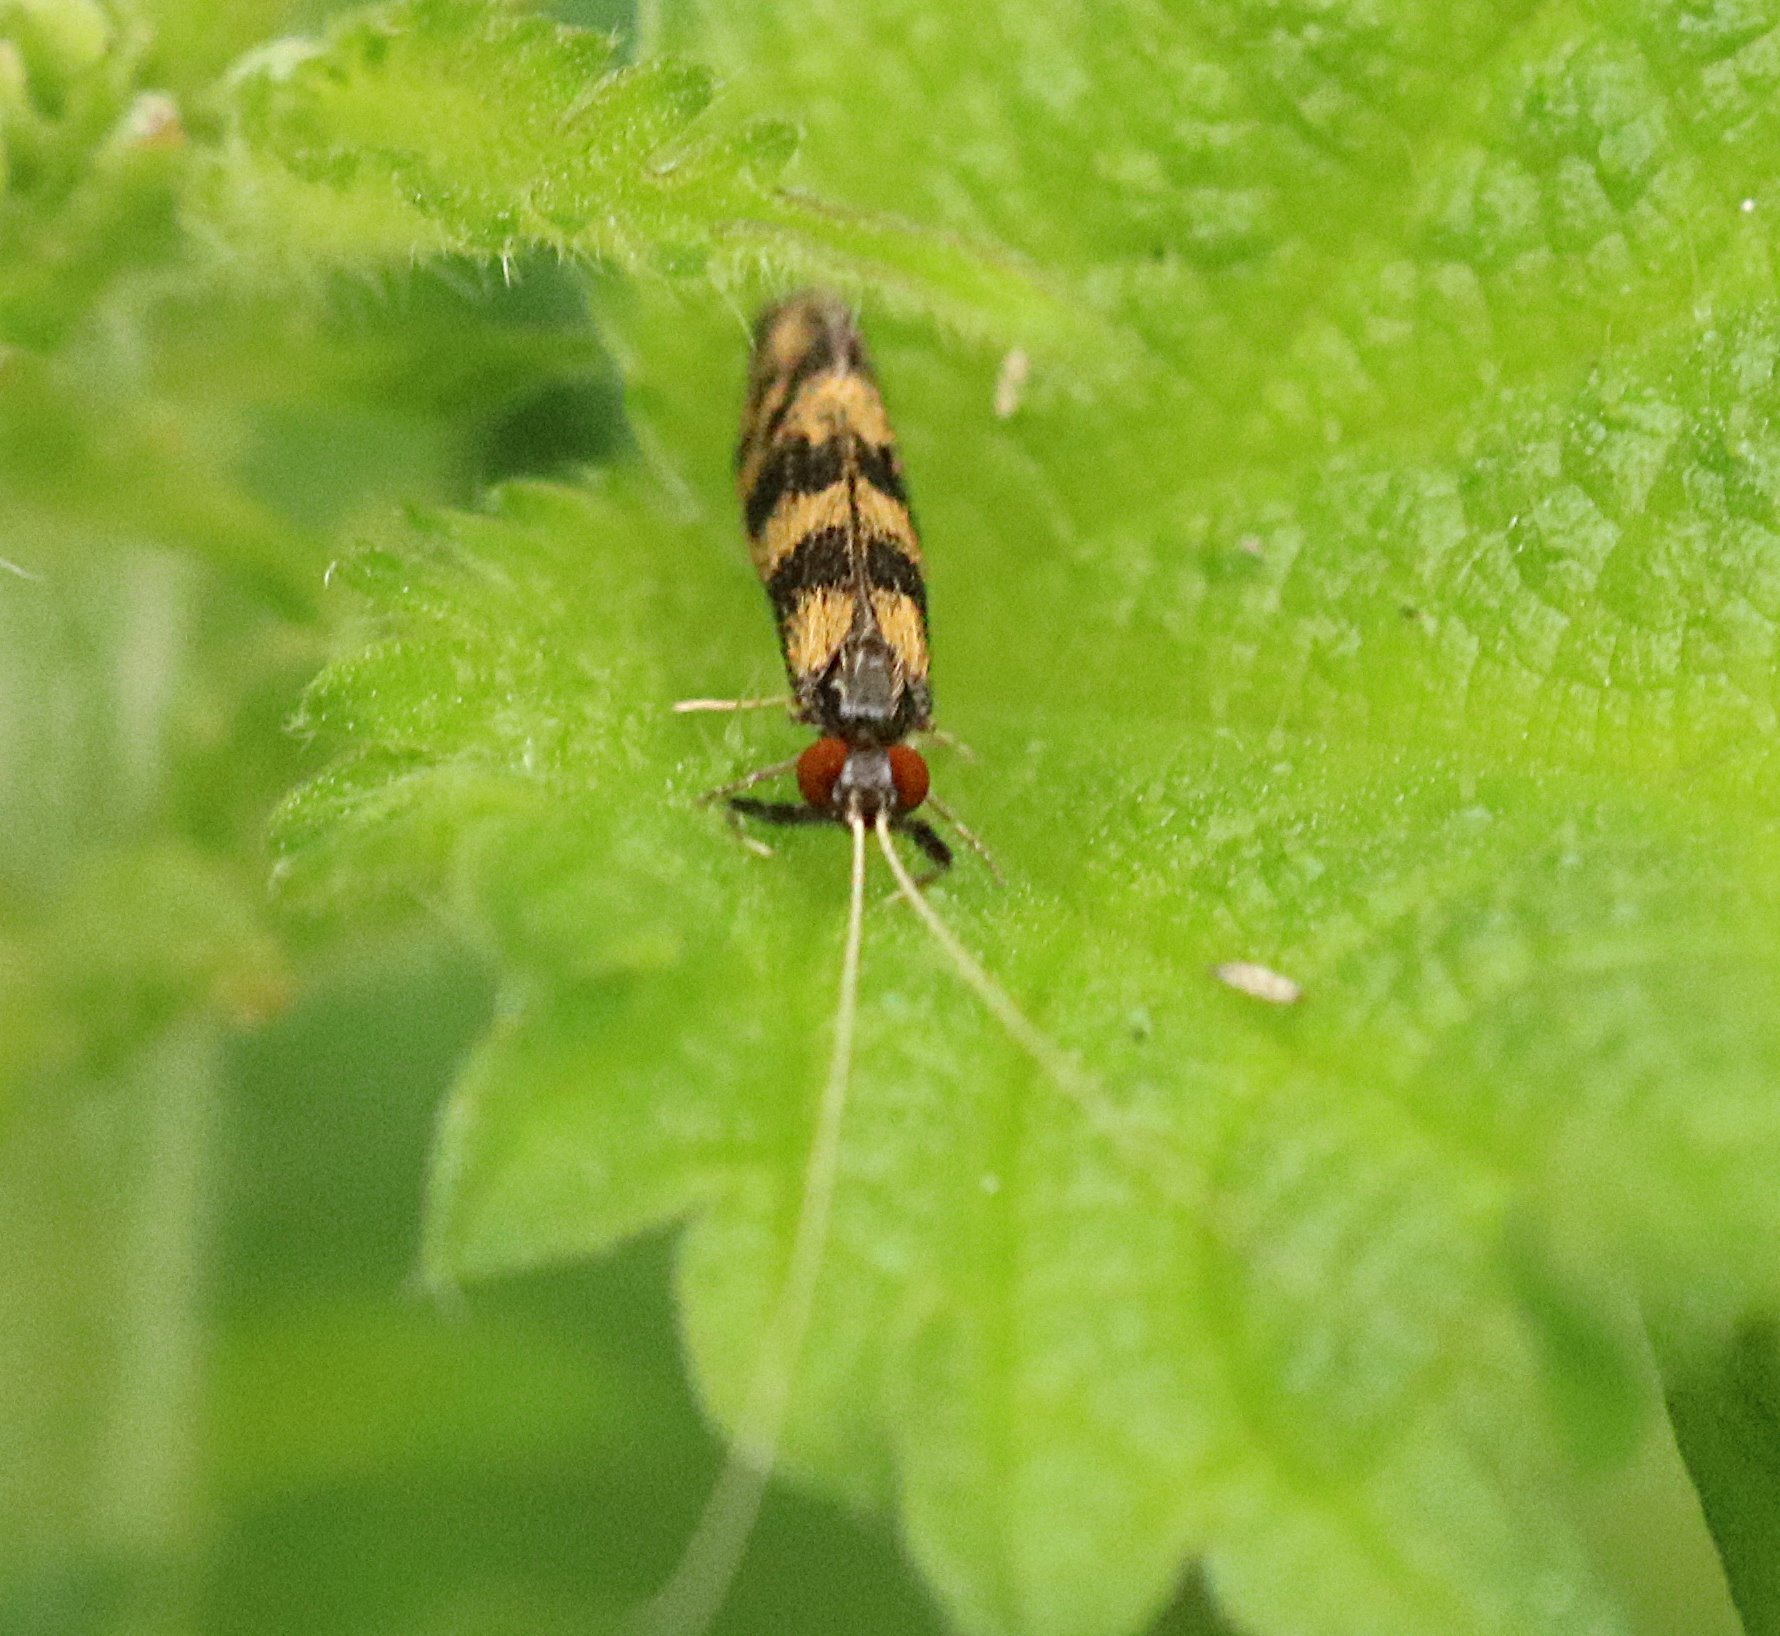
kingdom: Animalia
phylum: Arthropoda
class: Insecta
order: Trichoptera
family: Leptoceridae
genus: Mystacides
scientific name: Mystacides longicornis
